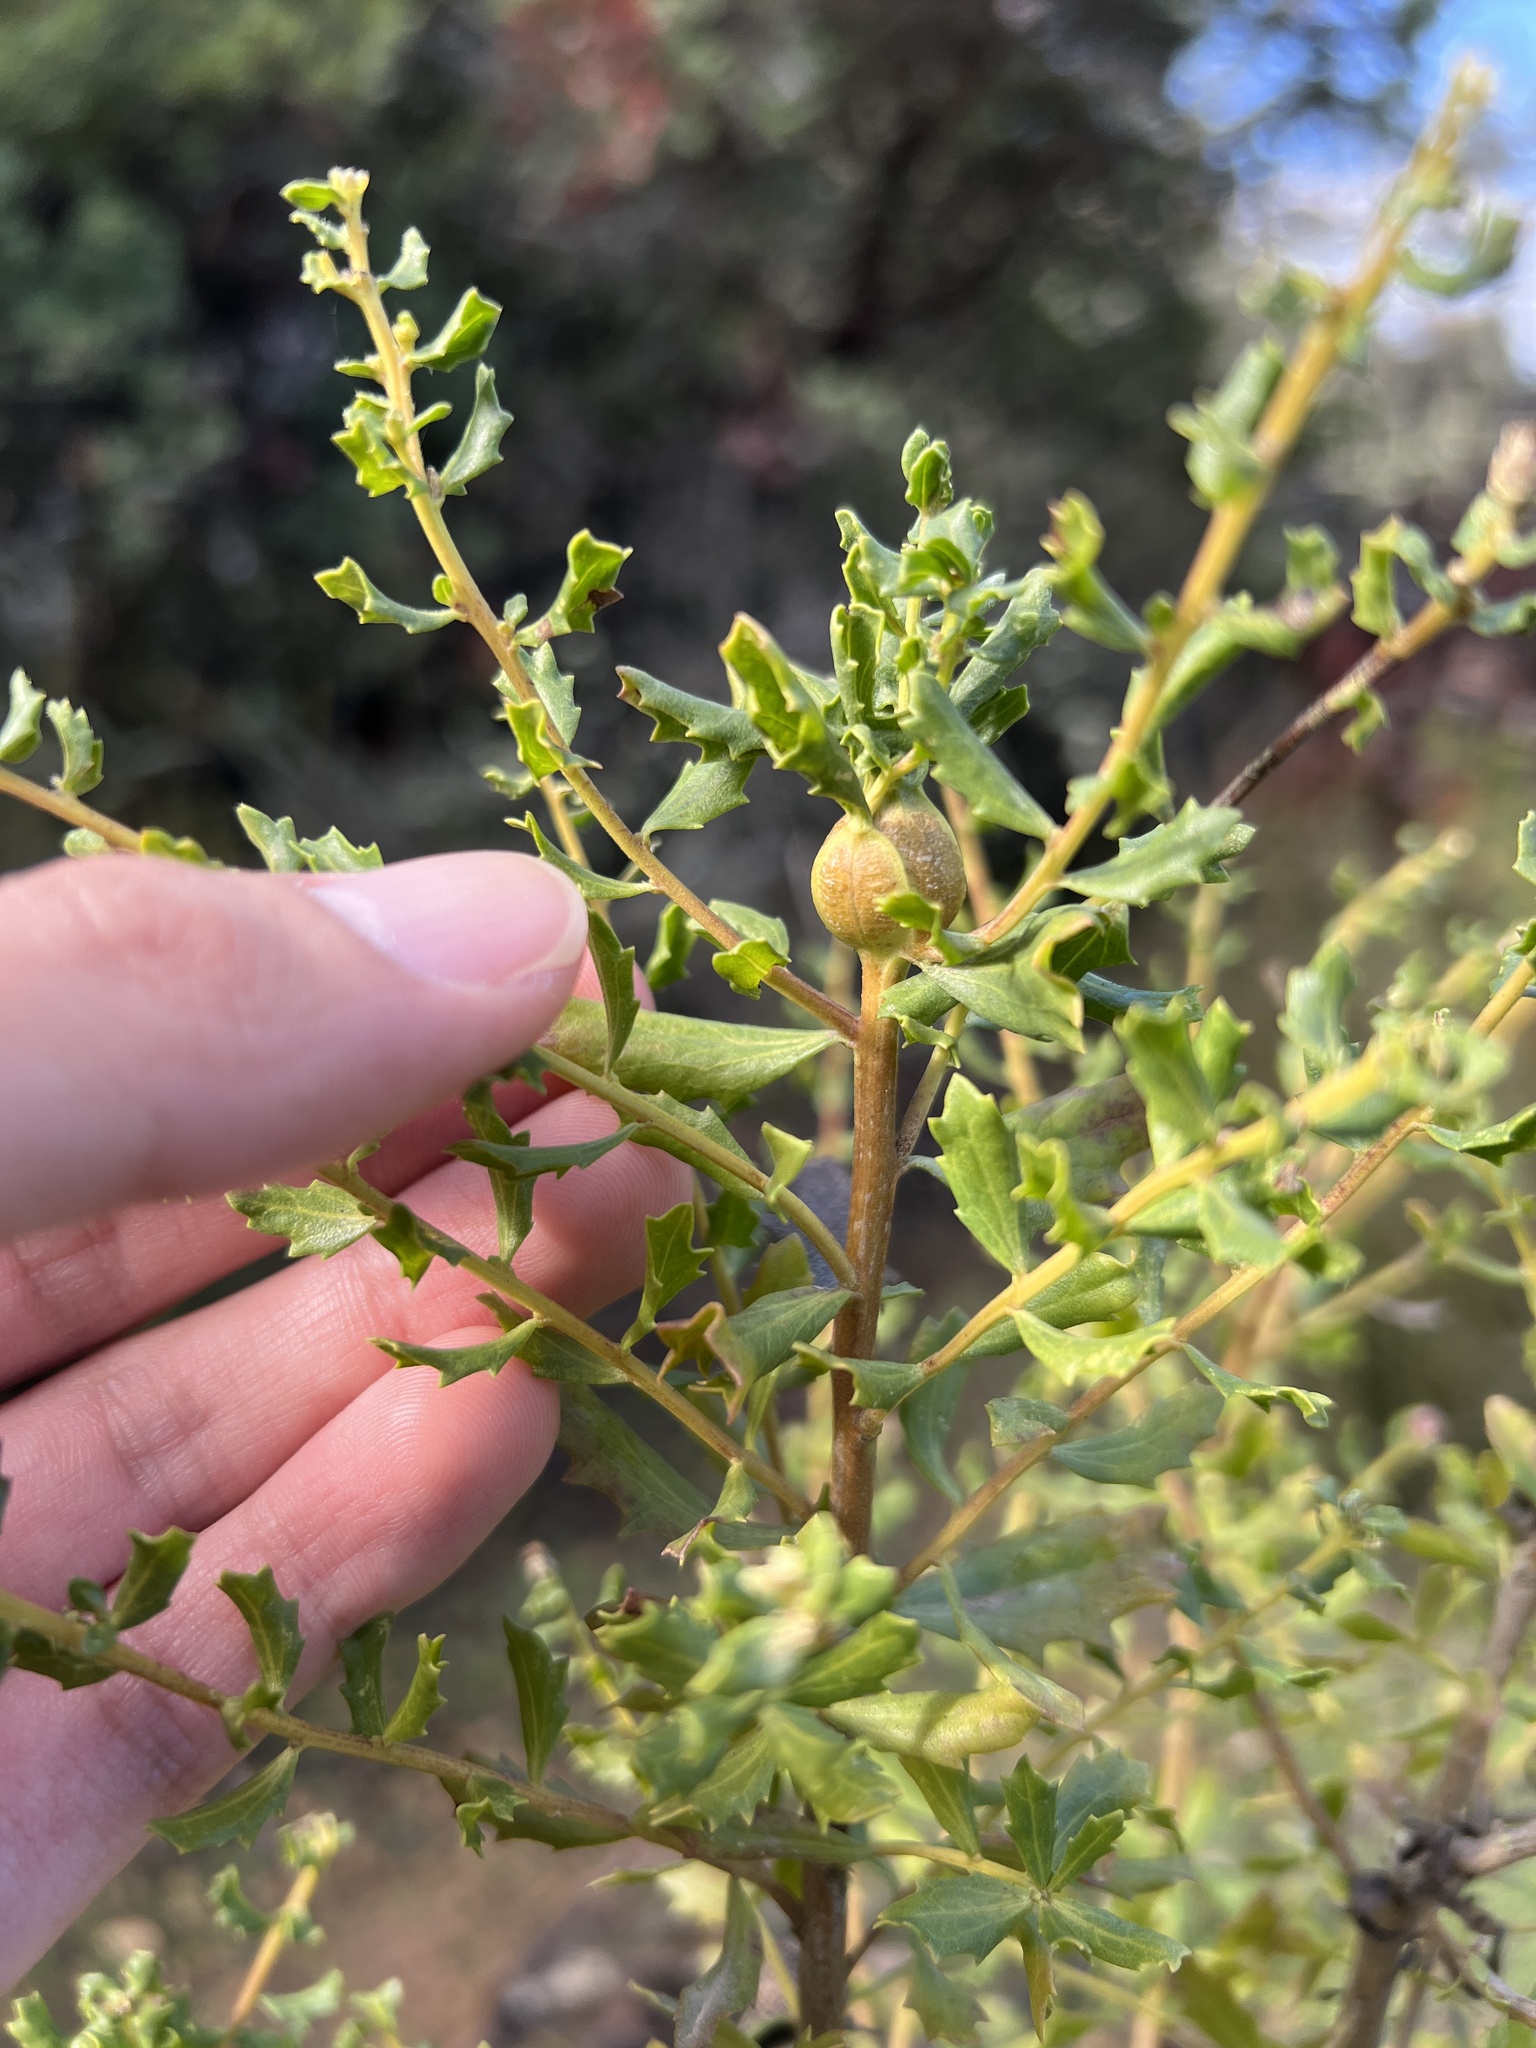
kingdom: Plantae
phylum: Tracheophyta
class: Magnoliopsida
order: Asterales
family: Asteraceae
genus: Baccharis
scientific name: Baccharis pilularis
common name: Coyotebrush
